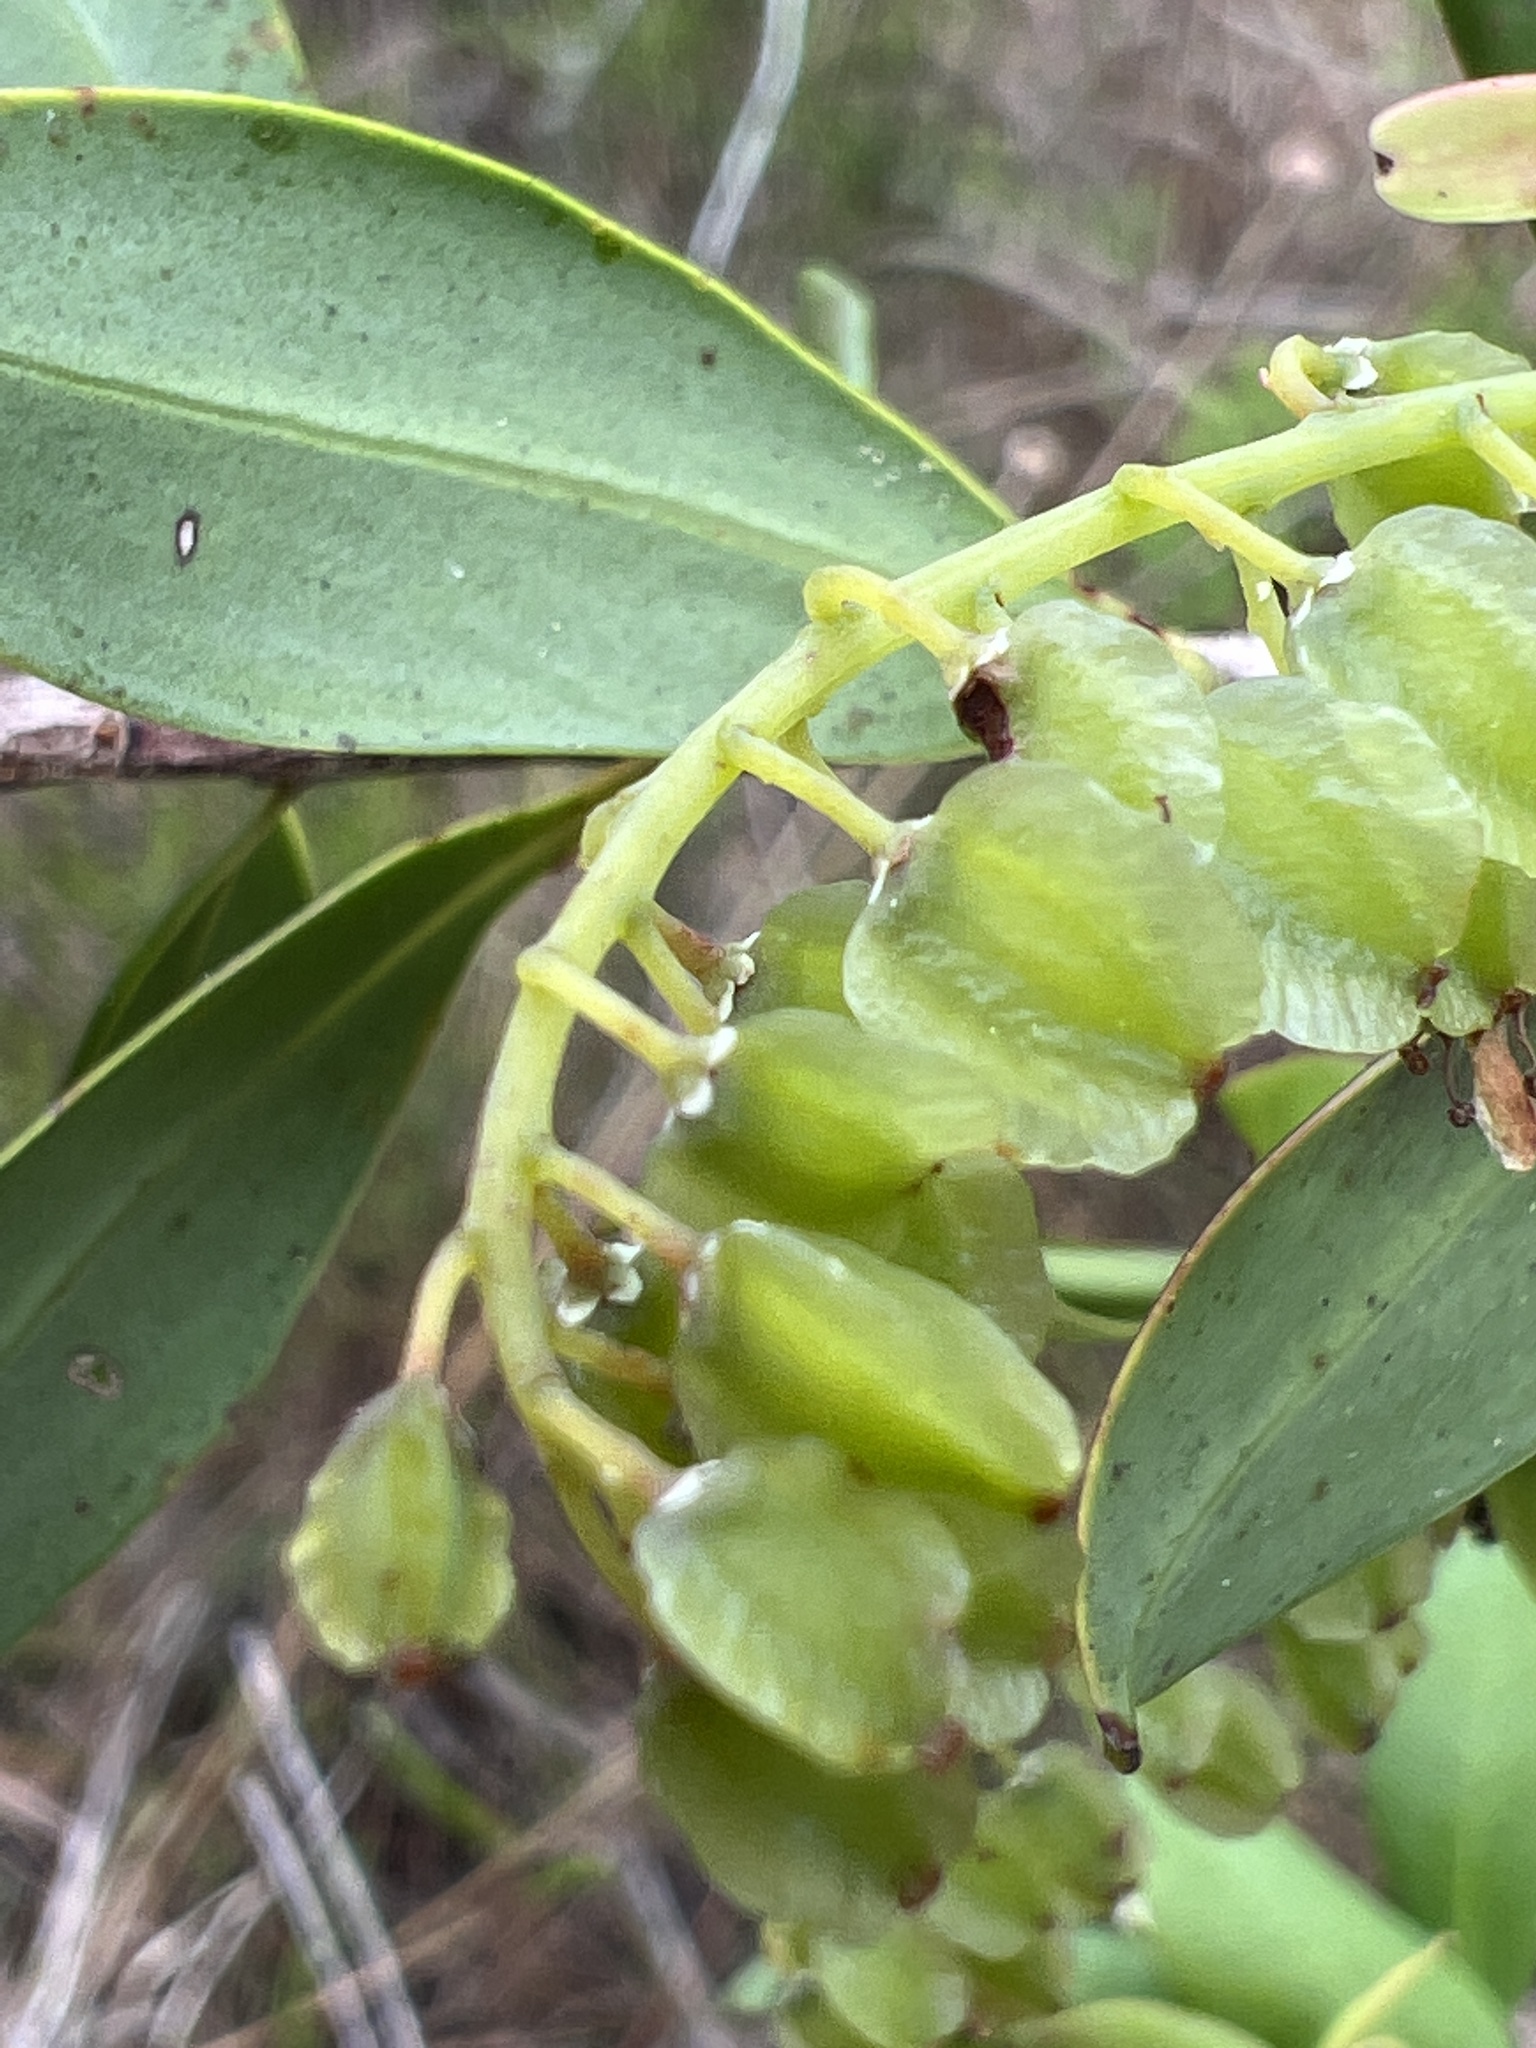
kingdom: Plantae
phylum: Tracheophyta
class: Magnoliopsida
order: Ericales
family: Cyrillaceae
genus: Cliftonia
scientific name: Cliftonia monophylla
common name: Titi
